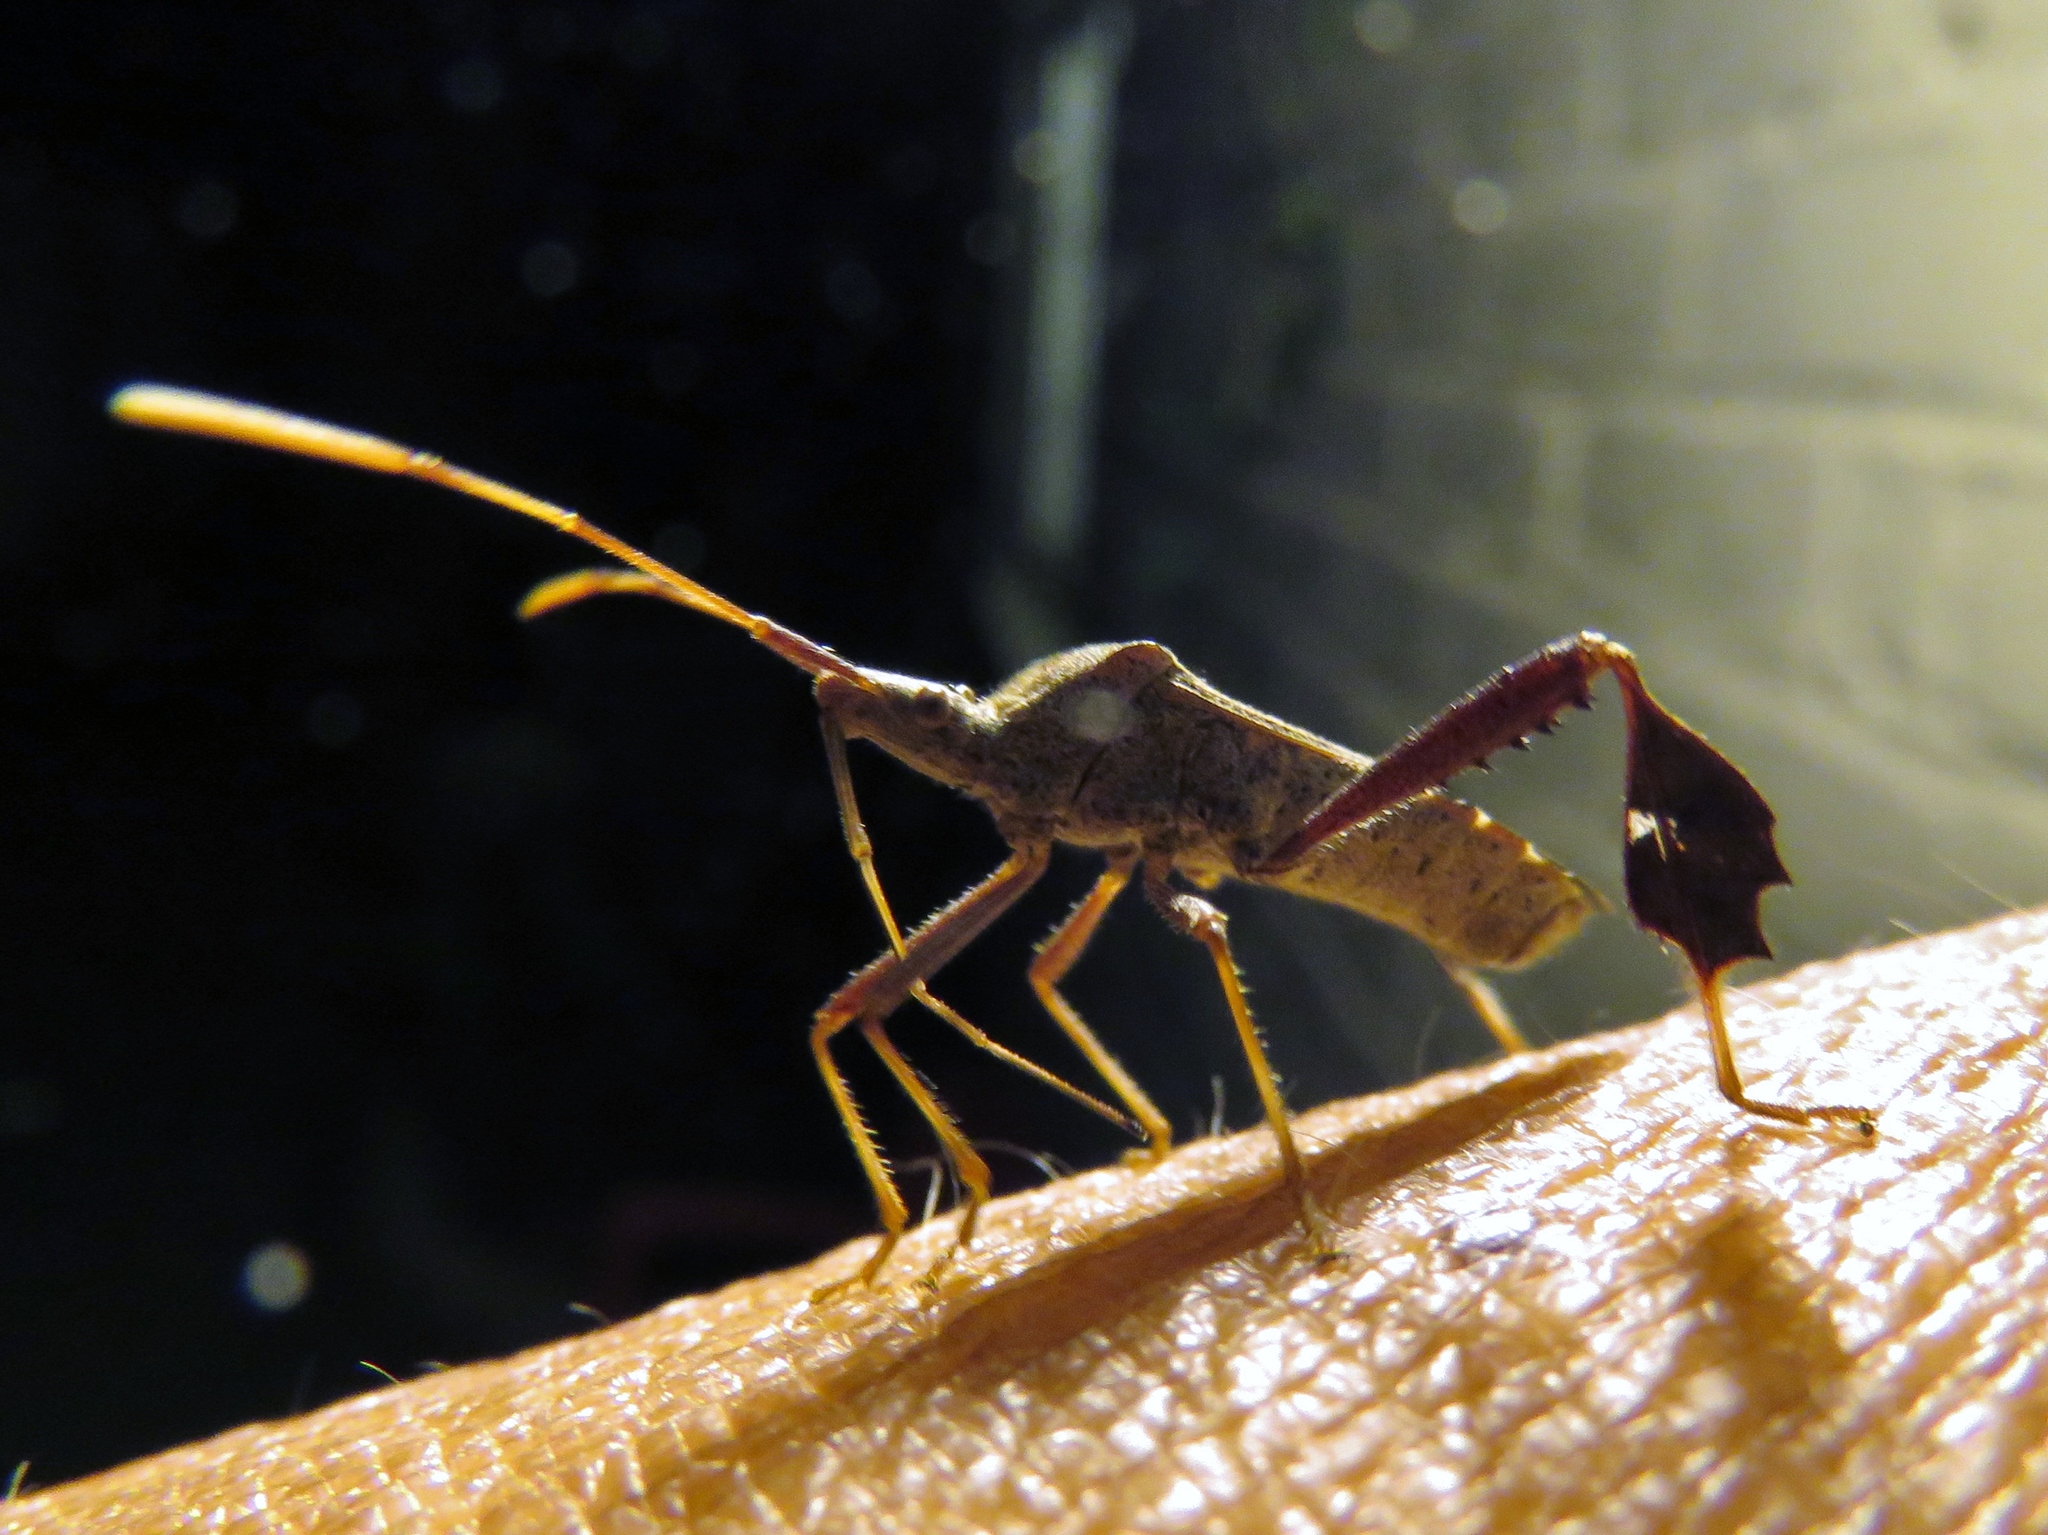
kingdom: Animalia
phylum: Arthropoda
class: Insecta
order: Hemiptera
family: Coreidae
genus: Leptoglossus
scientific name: Leptoglossus oppositus
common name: Northern leaf-footed bug
